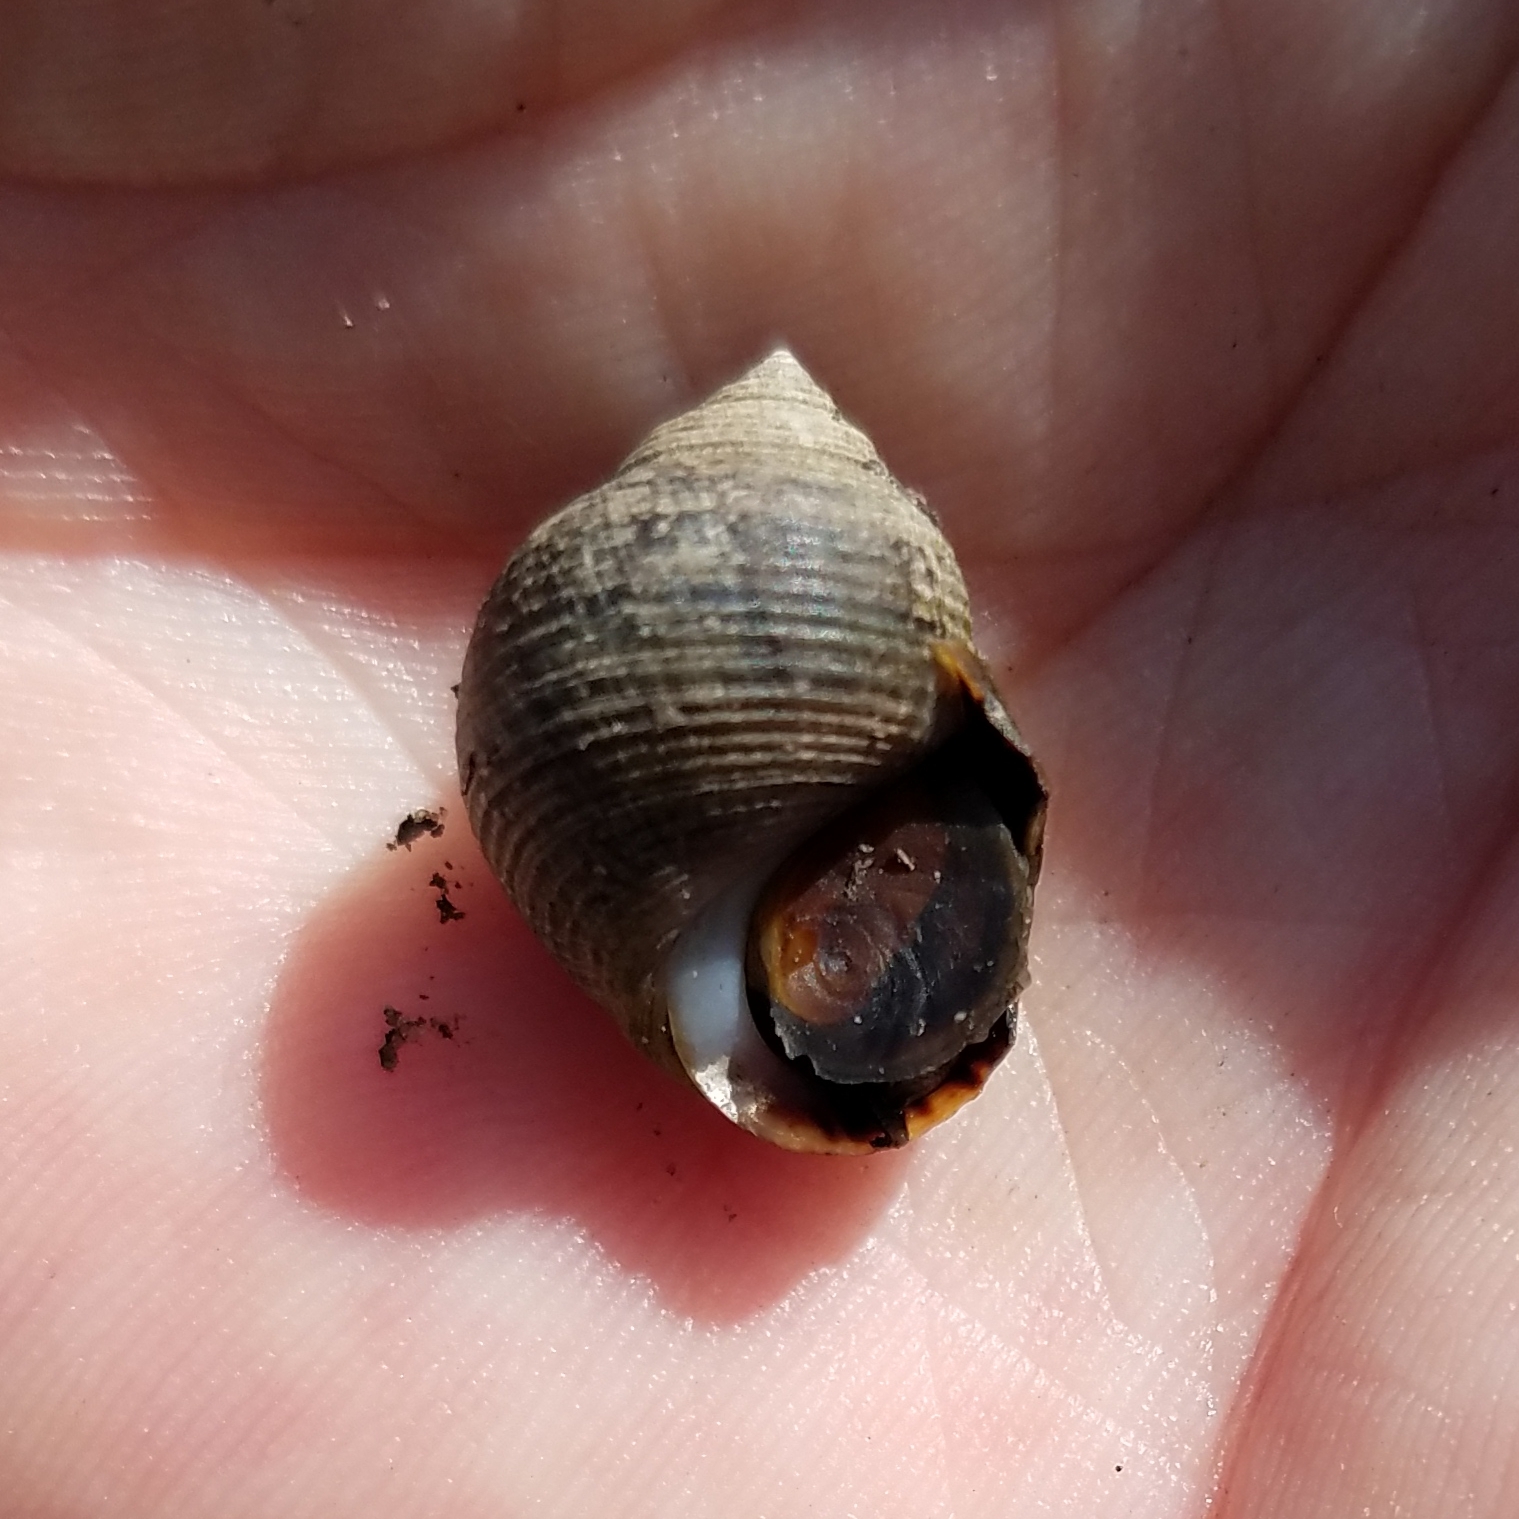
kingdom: Animalia
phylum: Mollusca
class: Gastropoda
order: Littorinimorpha
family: Littorinidae
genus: Littorina
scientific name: Littorina littorea
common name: Common periwinkle
